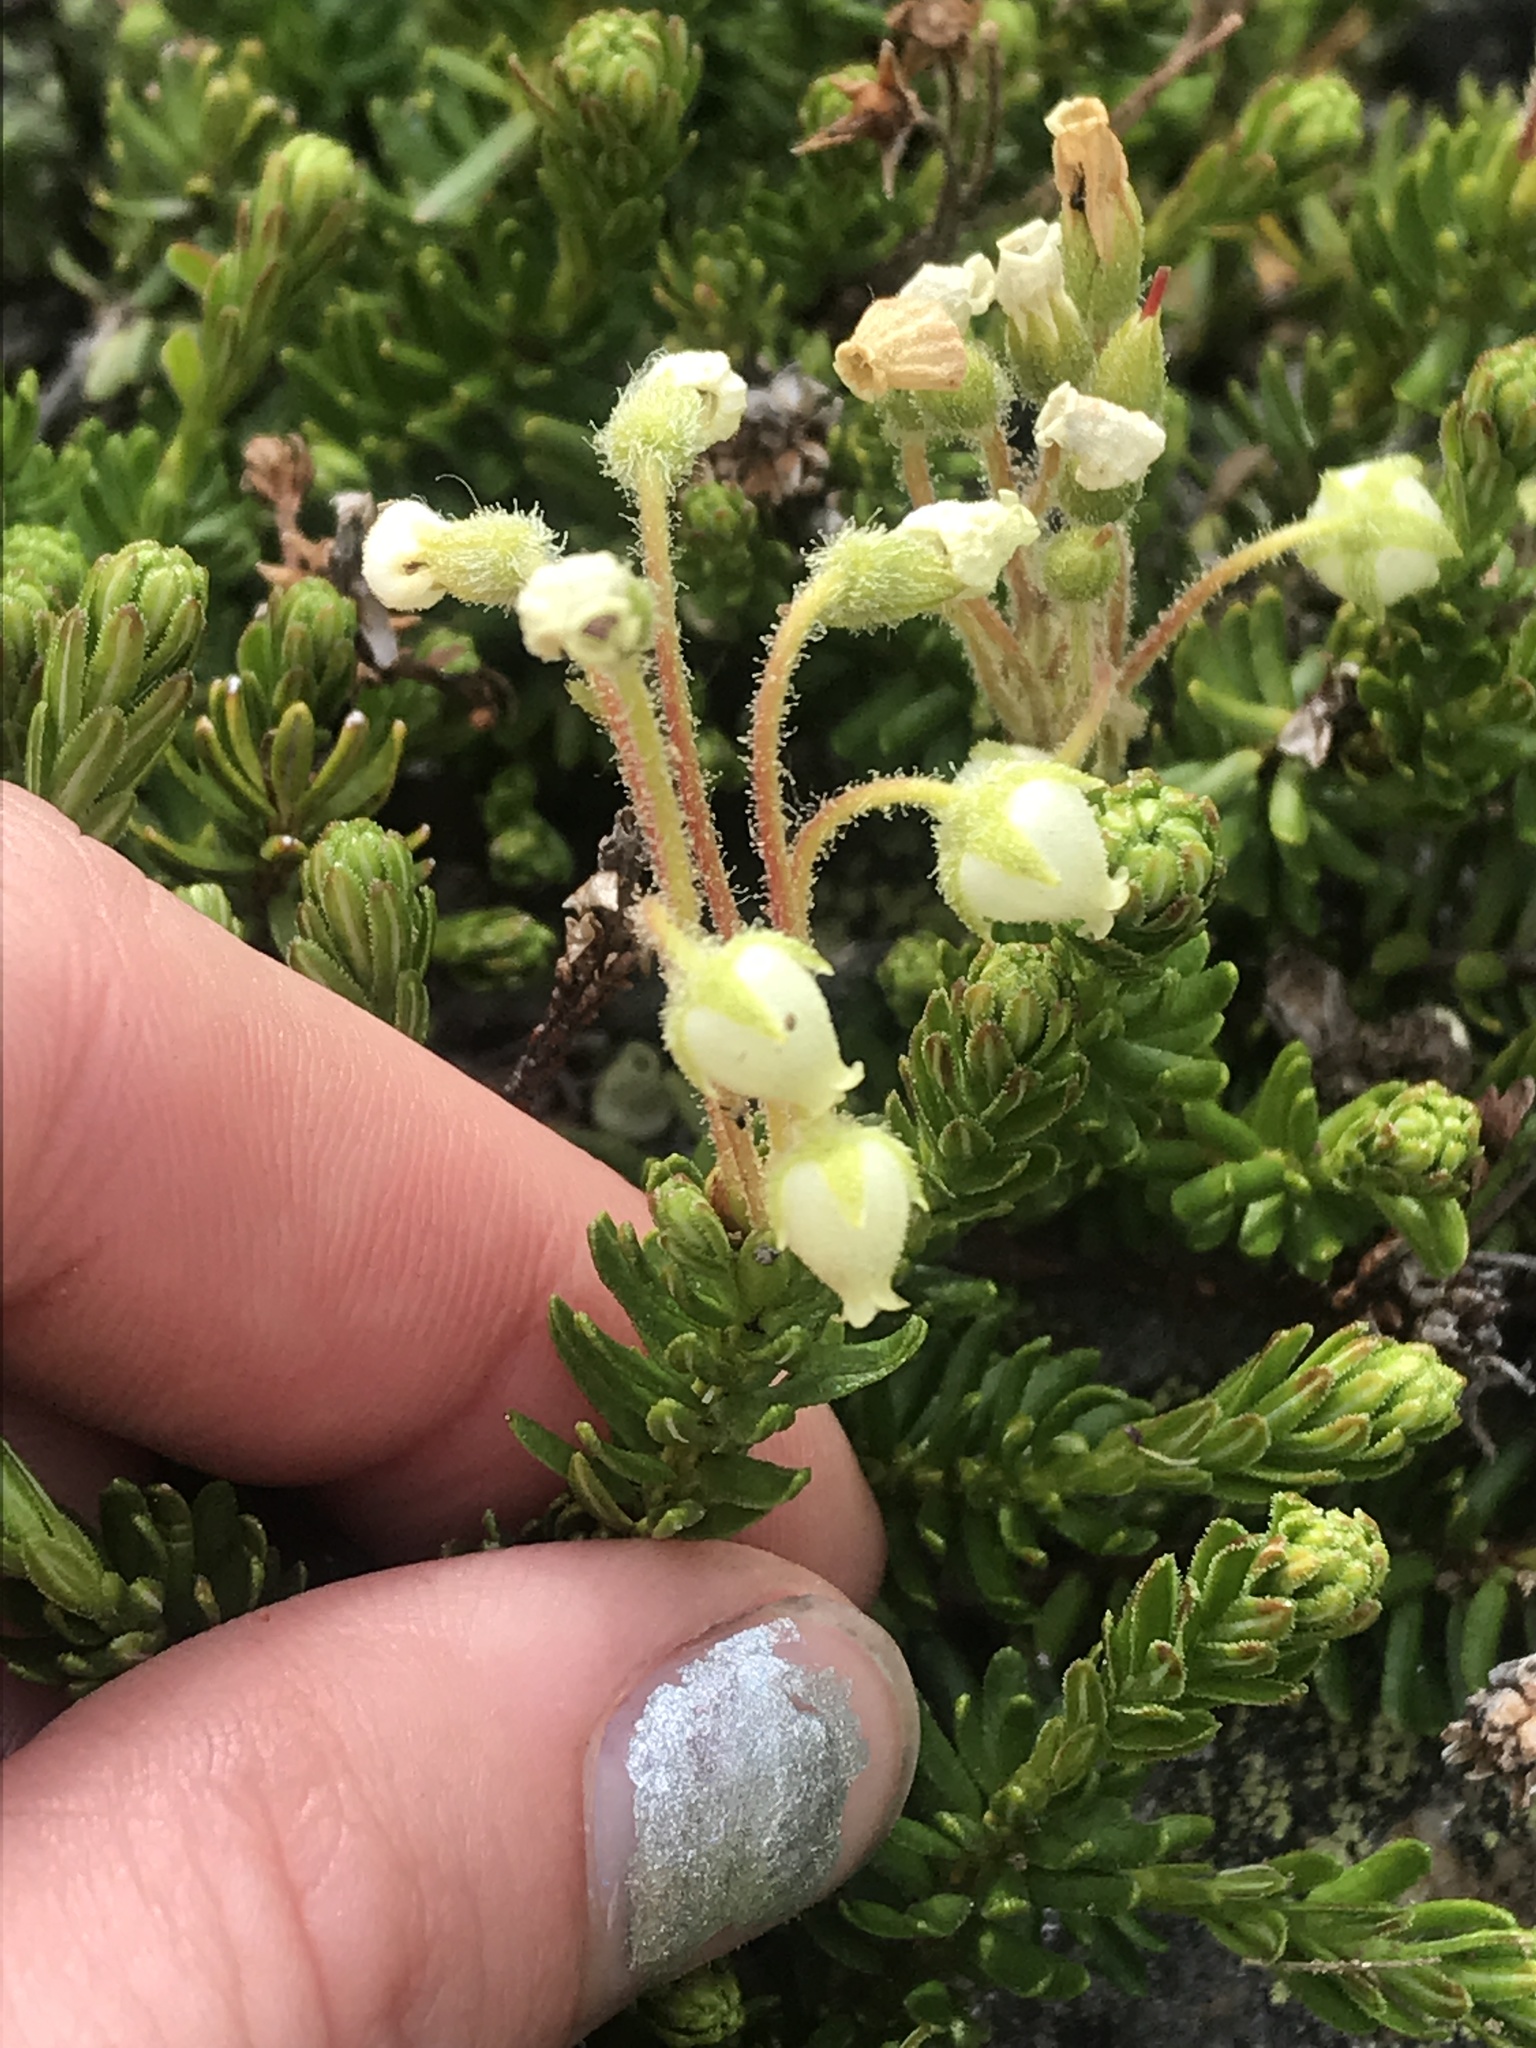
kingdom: Plantae
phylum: Tracheophyta
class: Magnoliopsida
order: Ericales
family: Ericaceae
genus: Phyllodoce
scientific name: Phyllodoce glanduliflora
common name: Cream mountain heather
